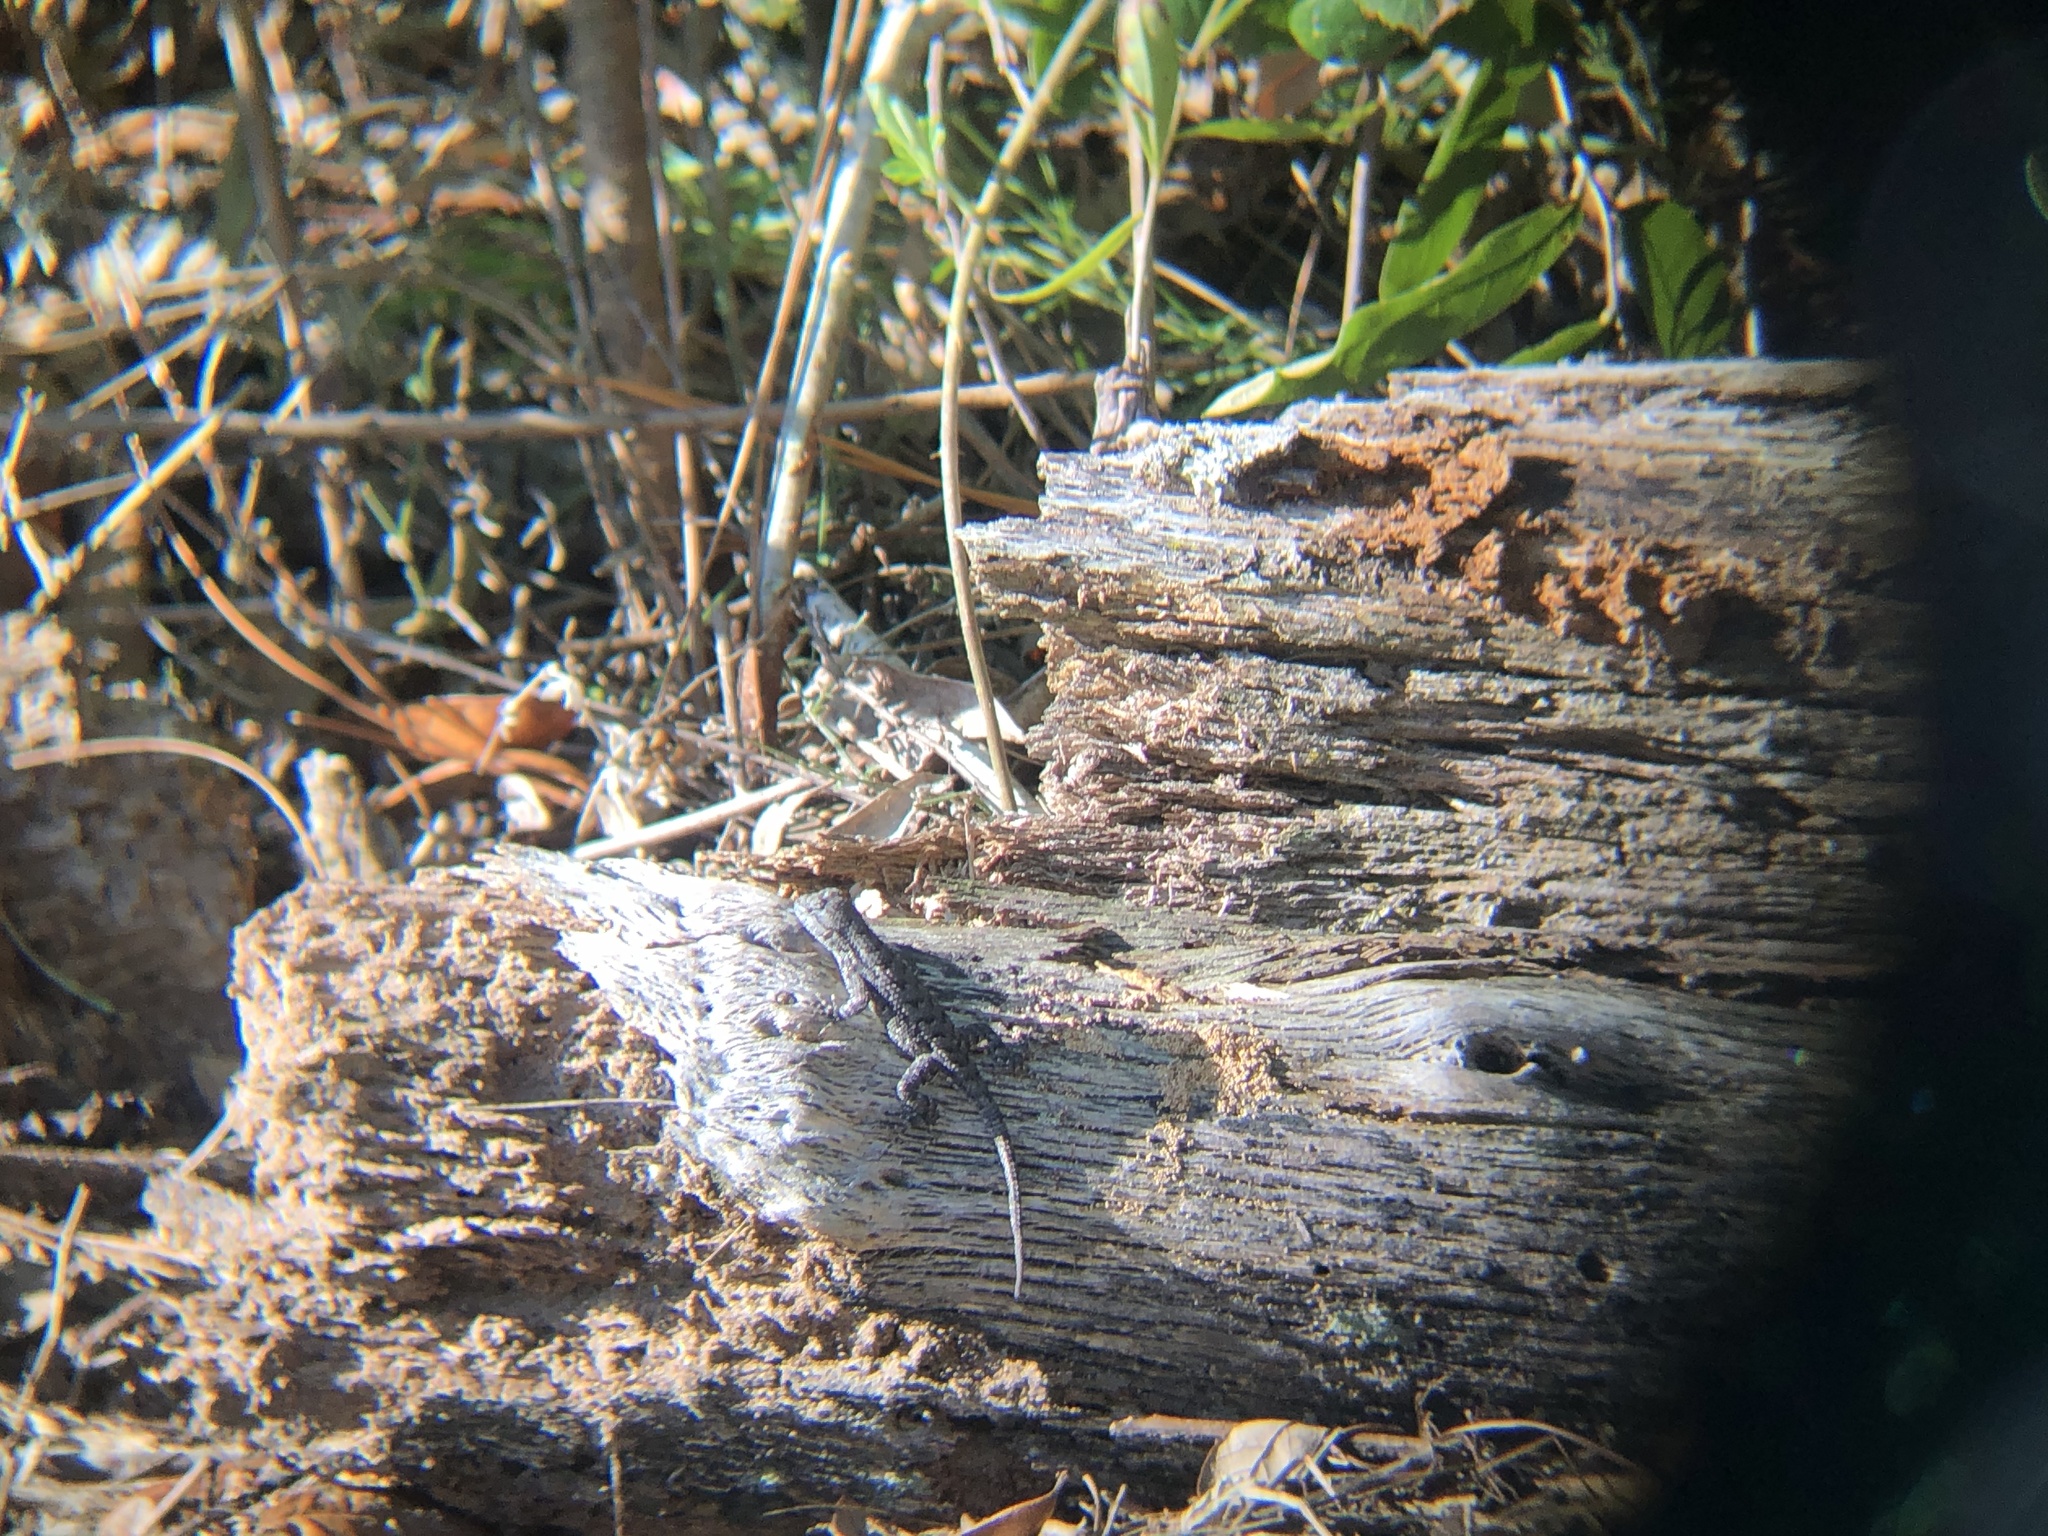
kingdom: Animalia
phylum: Chordata
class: Squamata
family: Phrynosomatidae
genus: Sceloporus
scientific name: Sceloporus undulatus
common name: Eastern fence lizard
